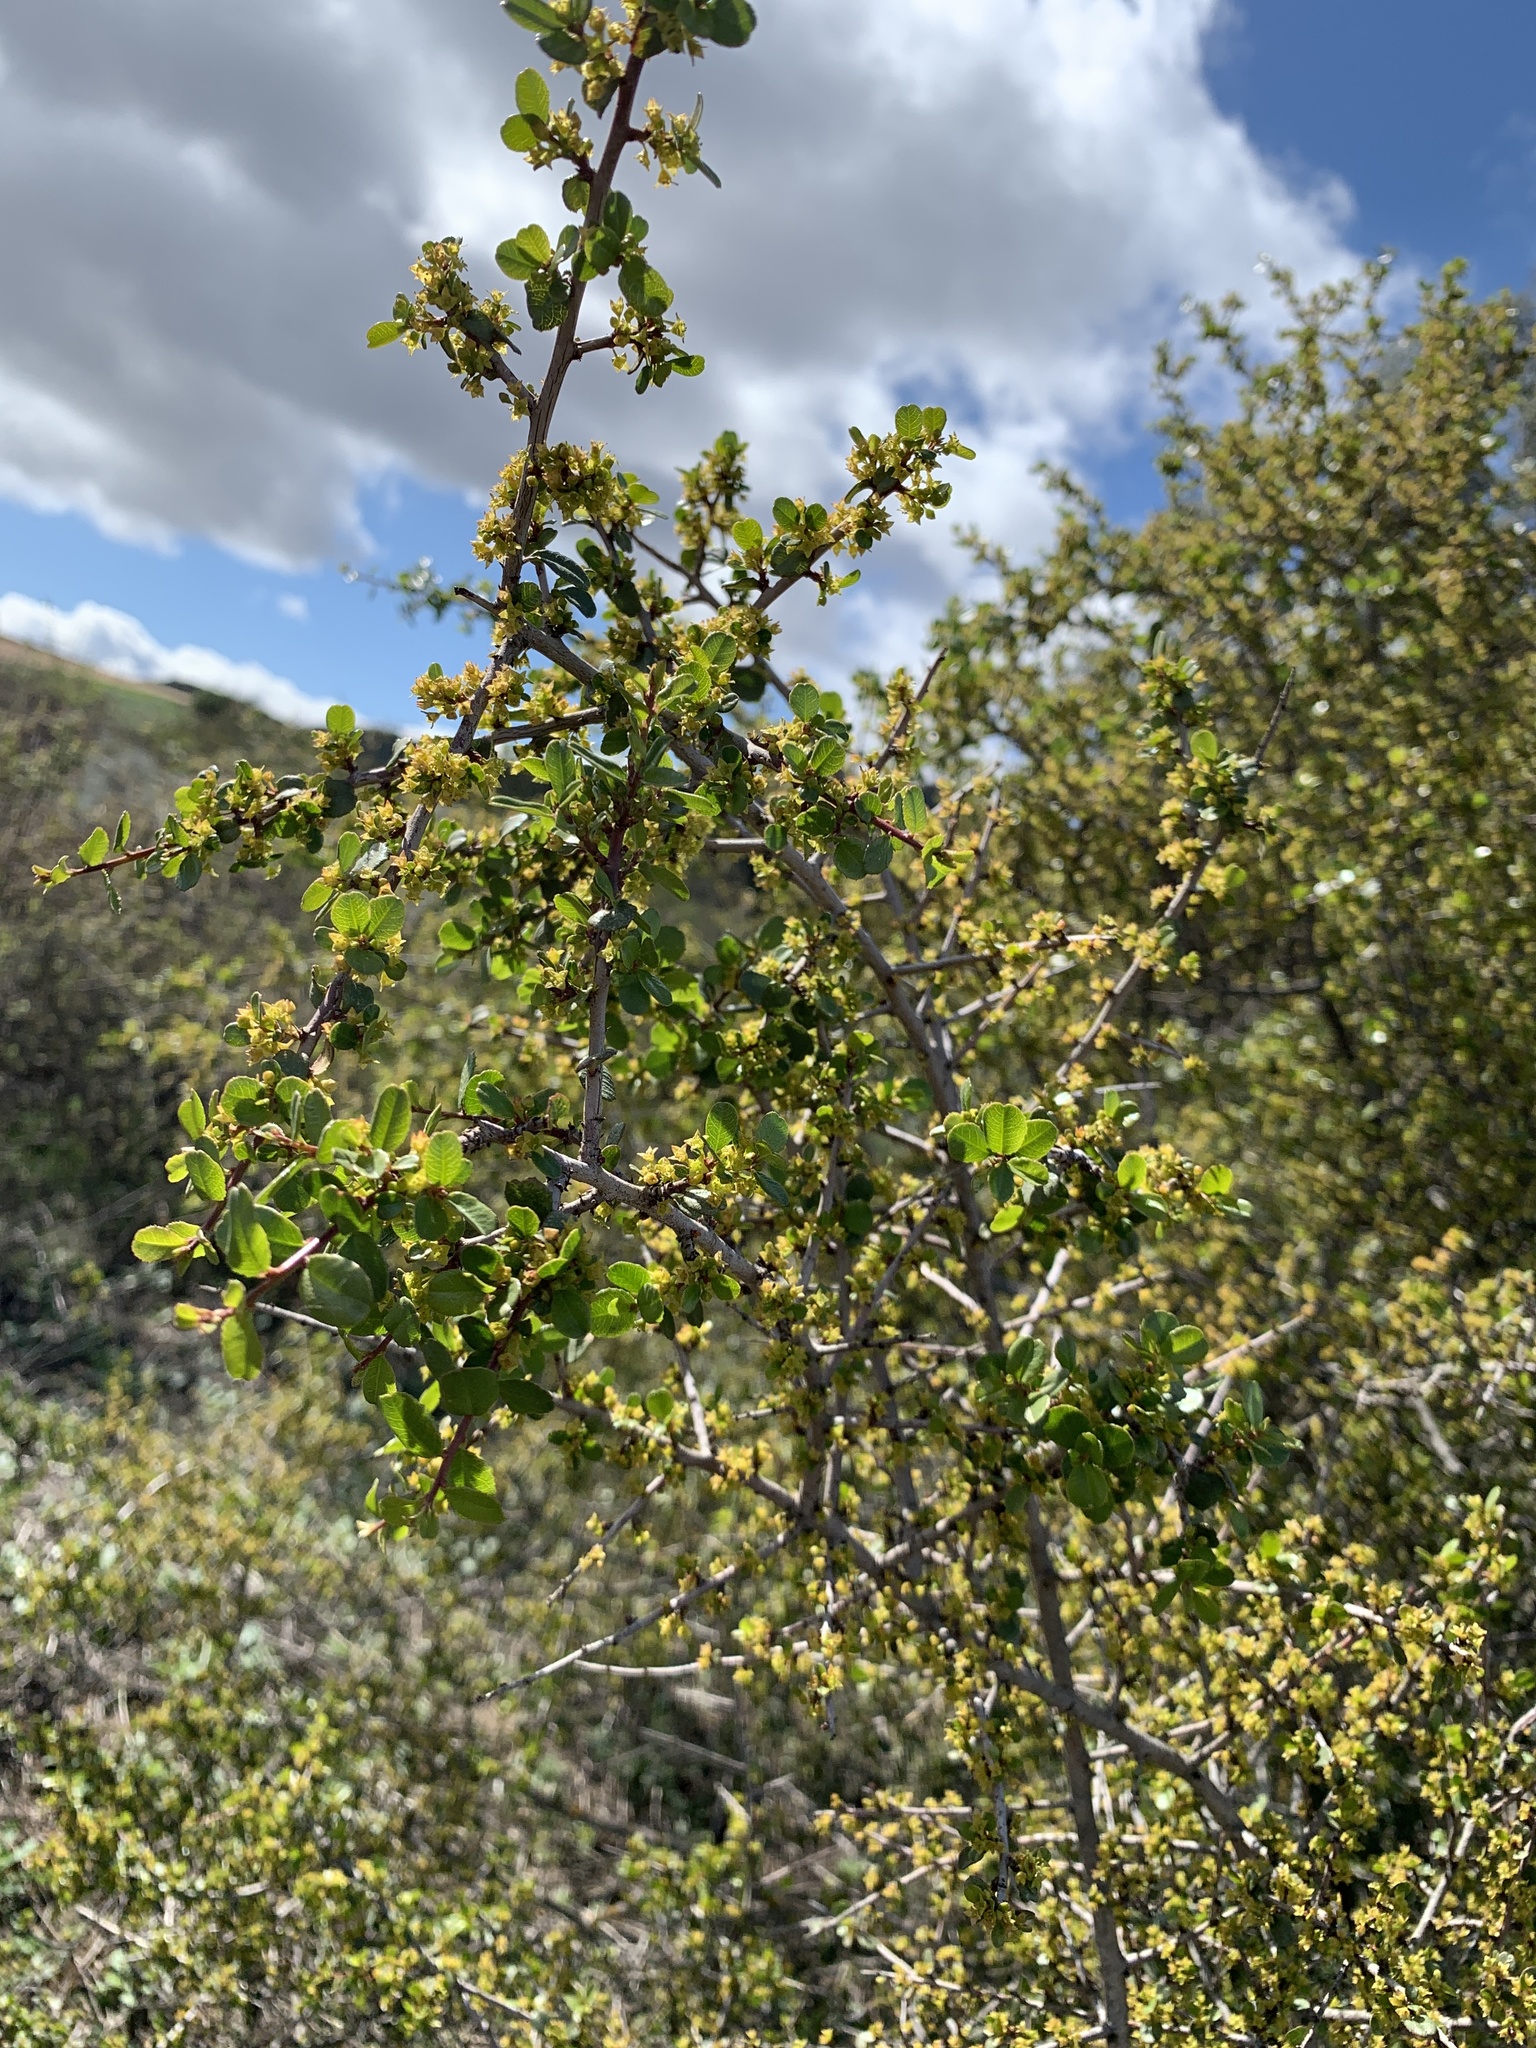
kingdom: Plantae
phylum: Tracheophyta
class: Magnoliopsida
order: Rosales
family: Rhamnaceae
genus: Endotropis
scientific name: Endotropis crocea
